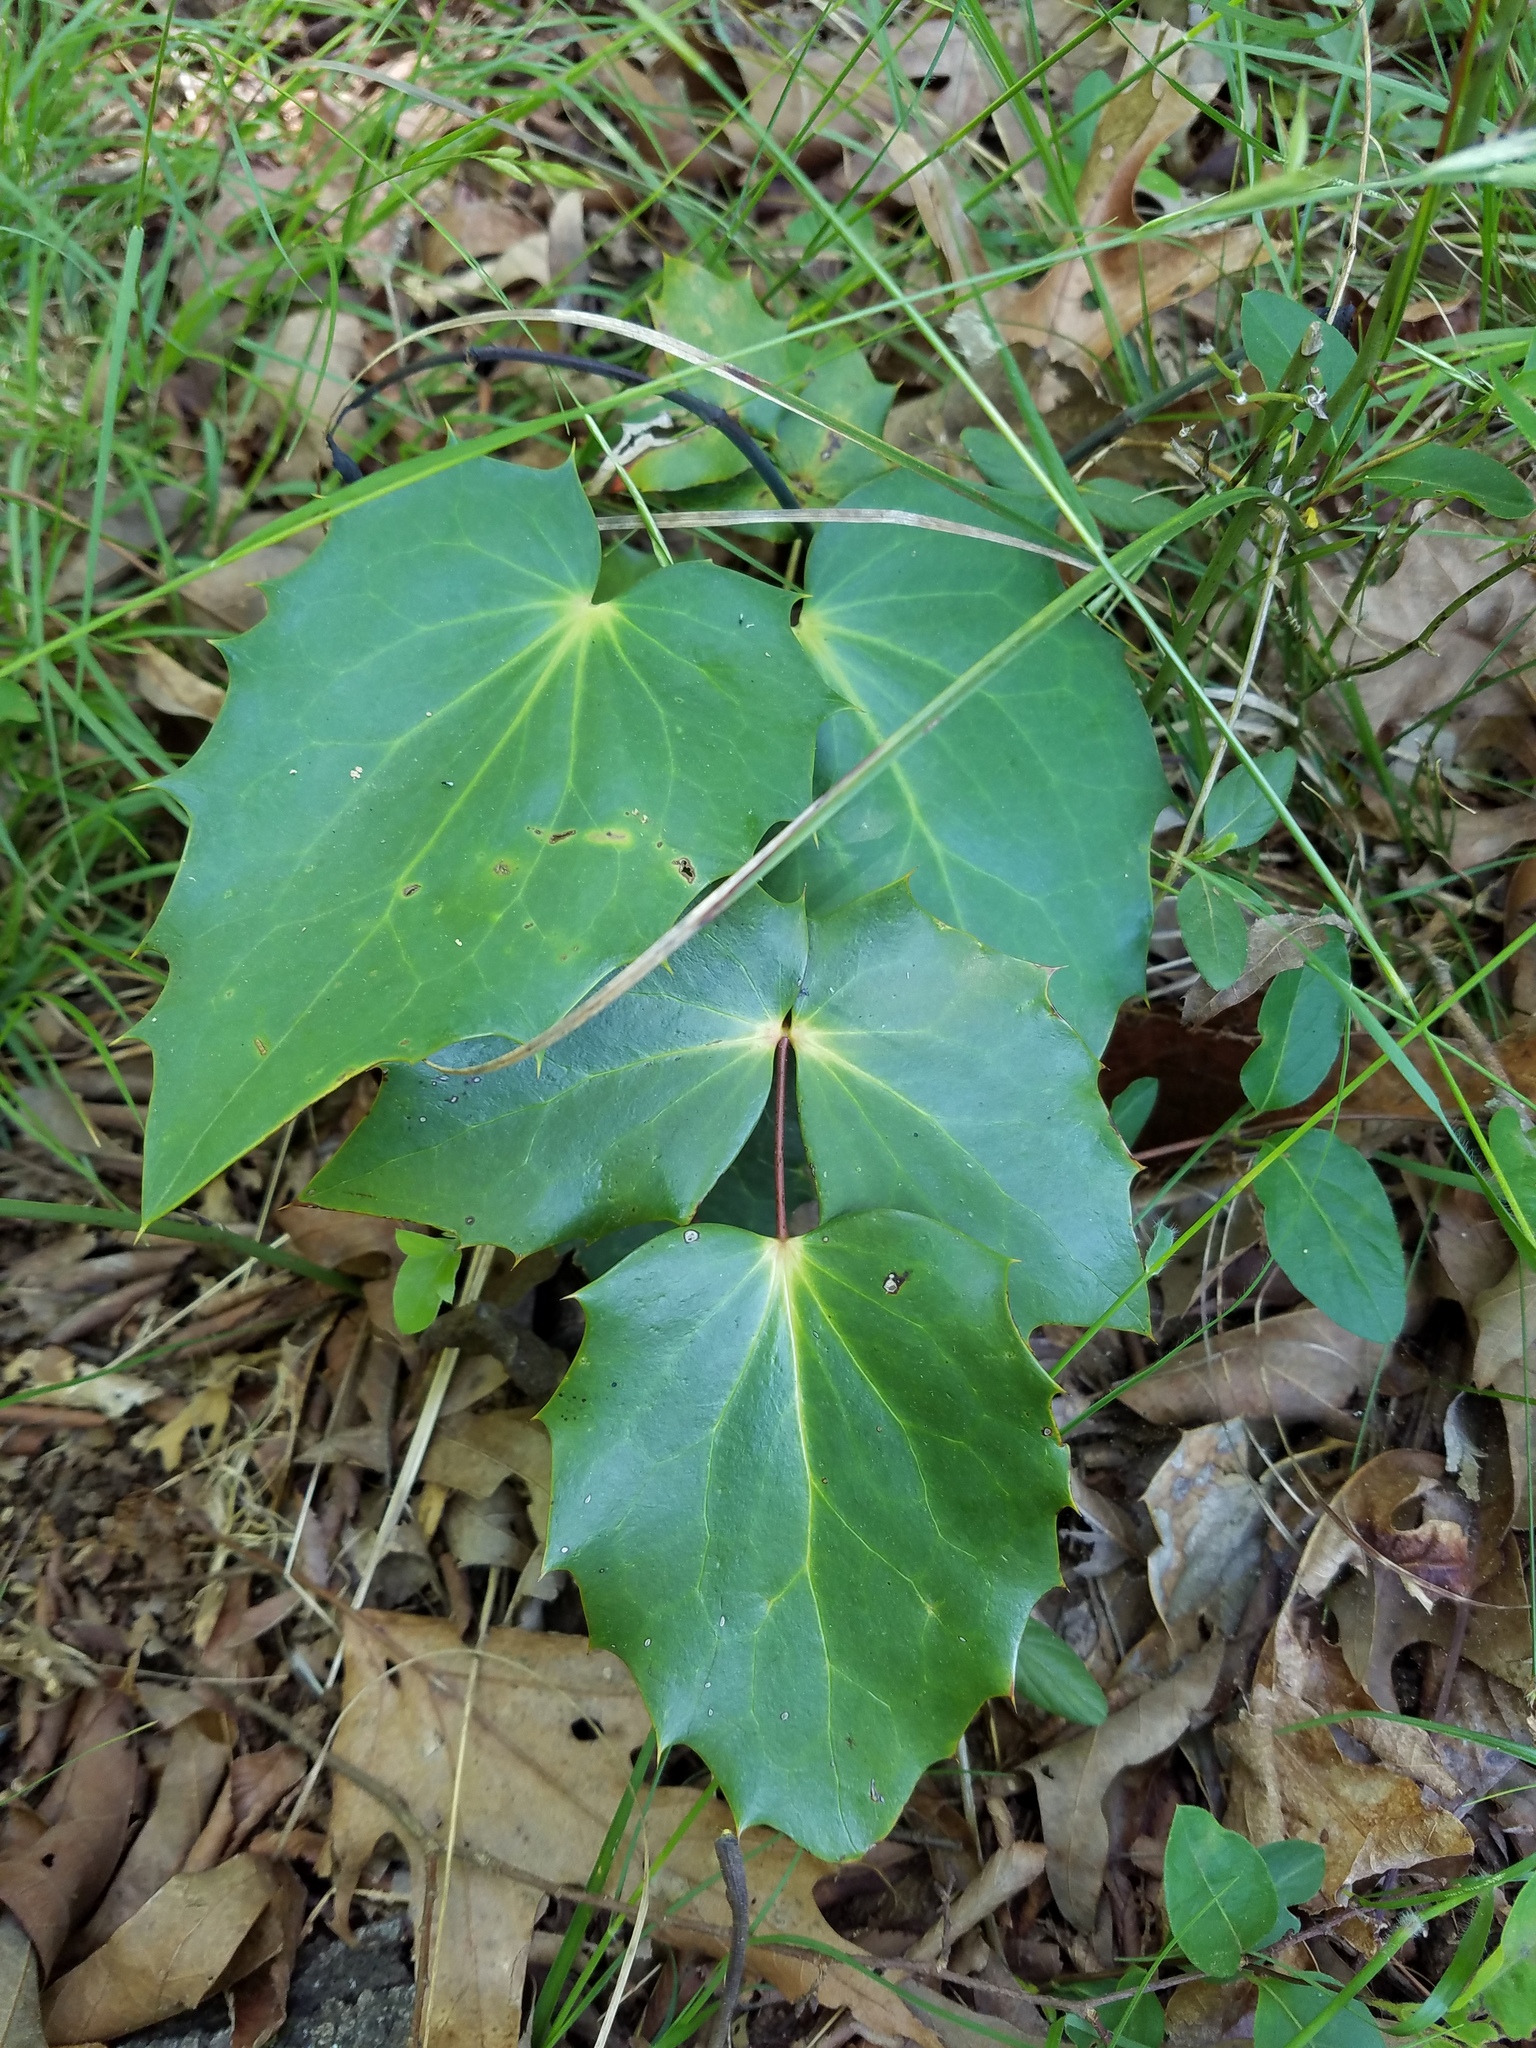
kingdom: Plantae
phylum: Tracheophyta
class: Magnoliopsida
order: Ranunculales
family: Berberidaceae
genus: Mahonia
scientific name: Mahonia bealei
